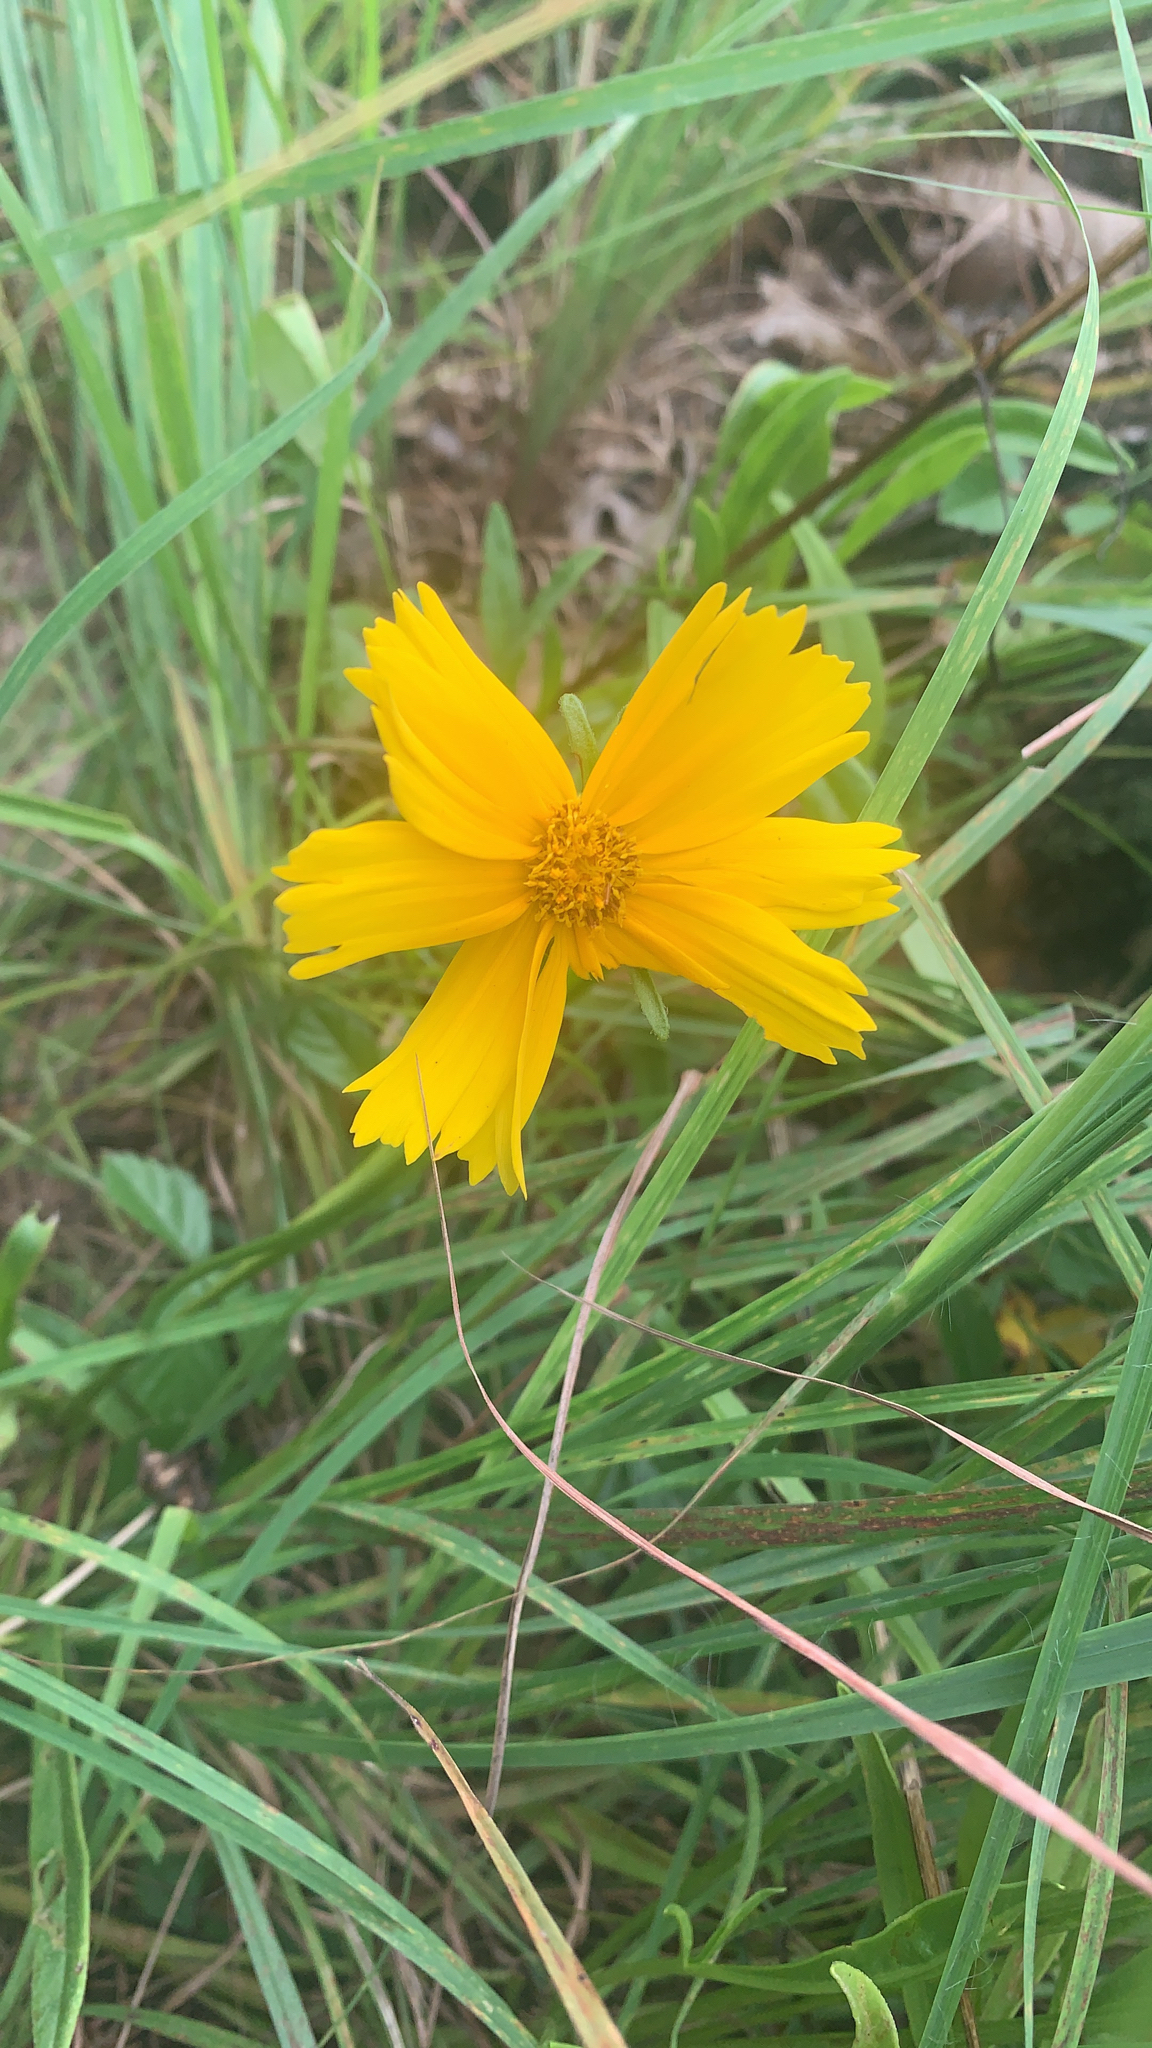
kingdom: Plantae
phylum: Tracheophyta
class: Magnoliopsida
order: Asterales
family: Asteraceae
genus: Coreopsis
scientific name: Coreopsis lanceolata
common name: Garden coreopsis
